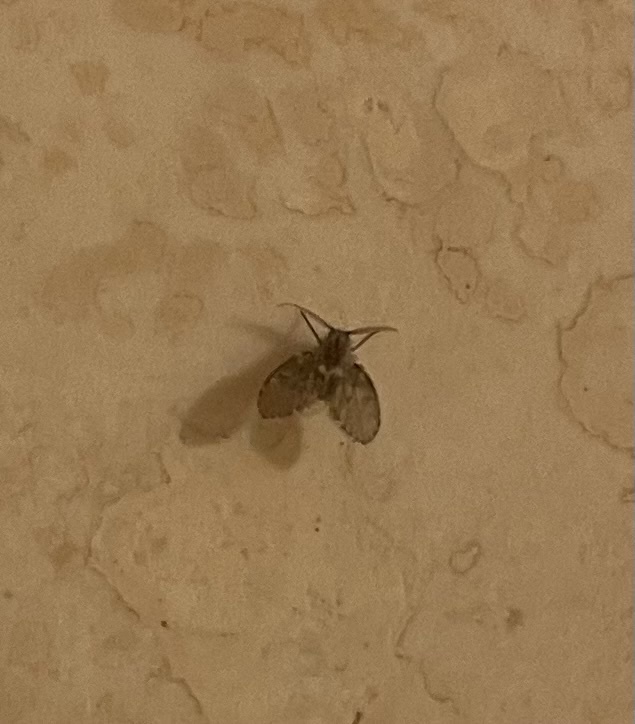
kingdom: Animalia
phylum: Arthropoda
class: Insecta
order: Diptera
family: Psychodidae
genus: Clogmia
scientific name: Clogmia albipunctatus
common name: White-spotted moth fly
